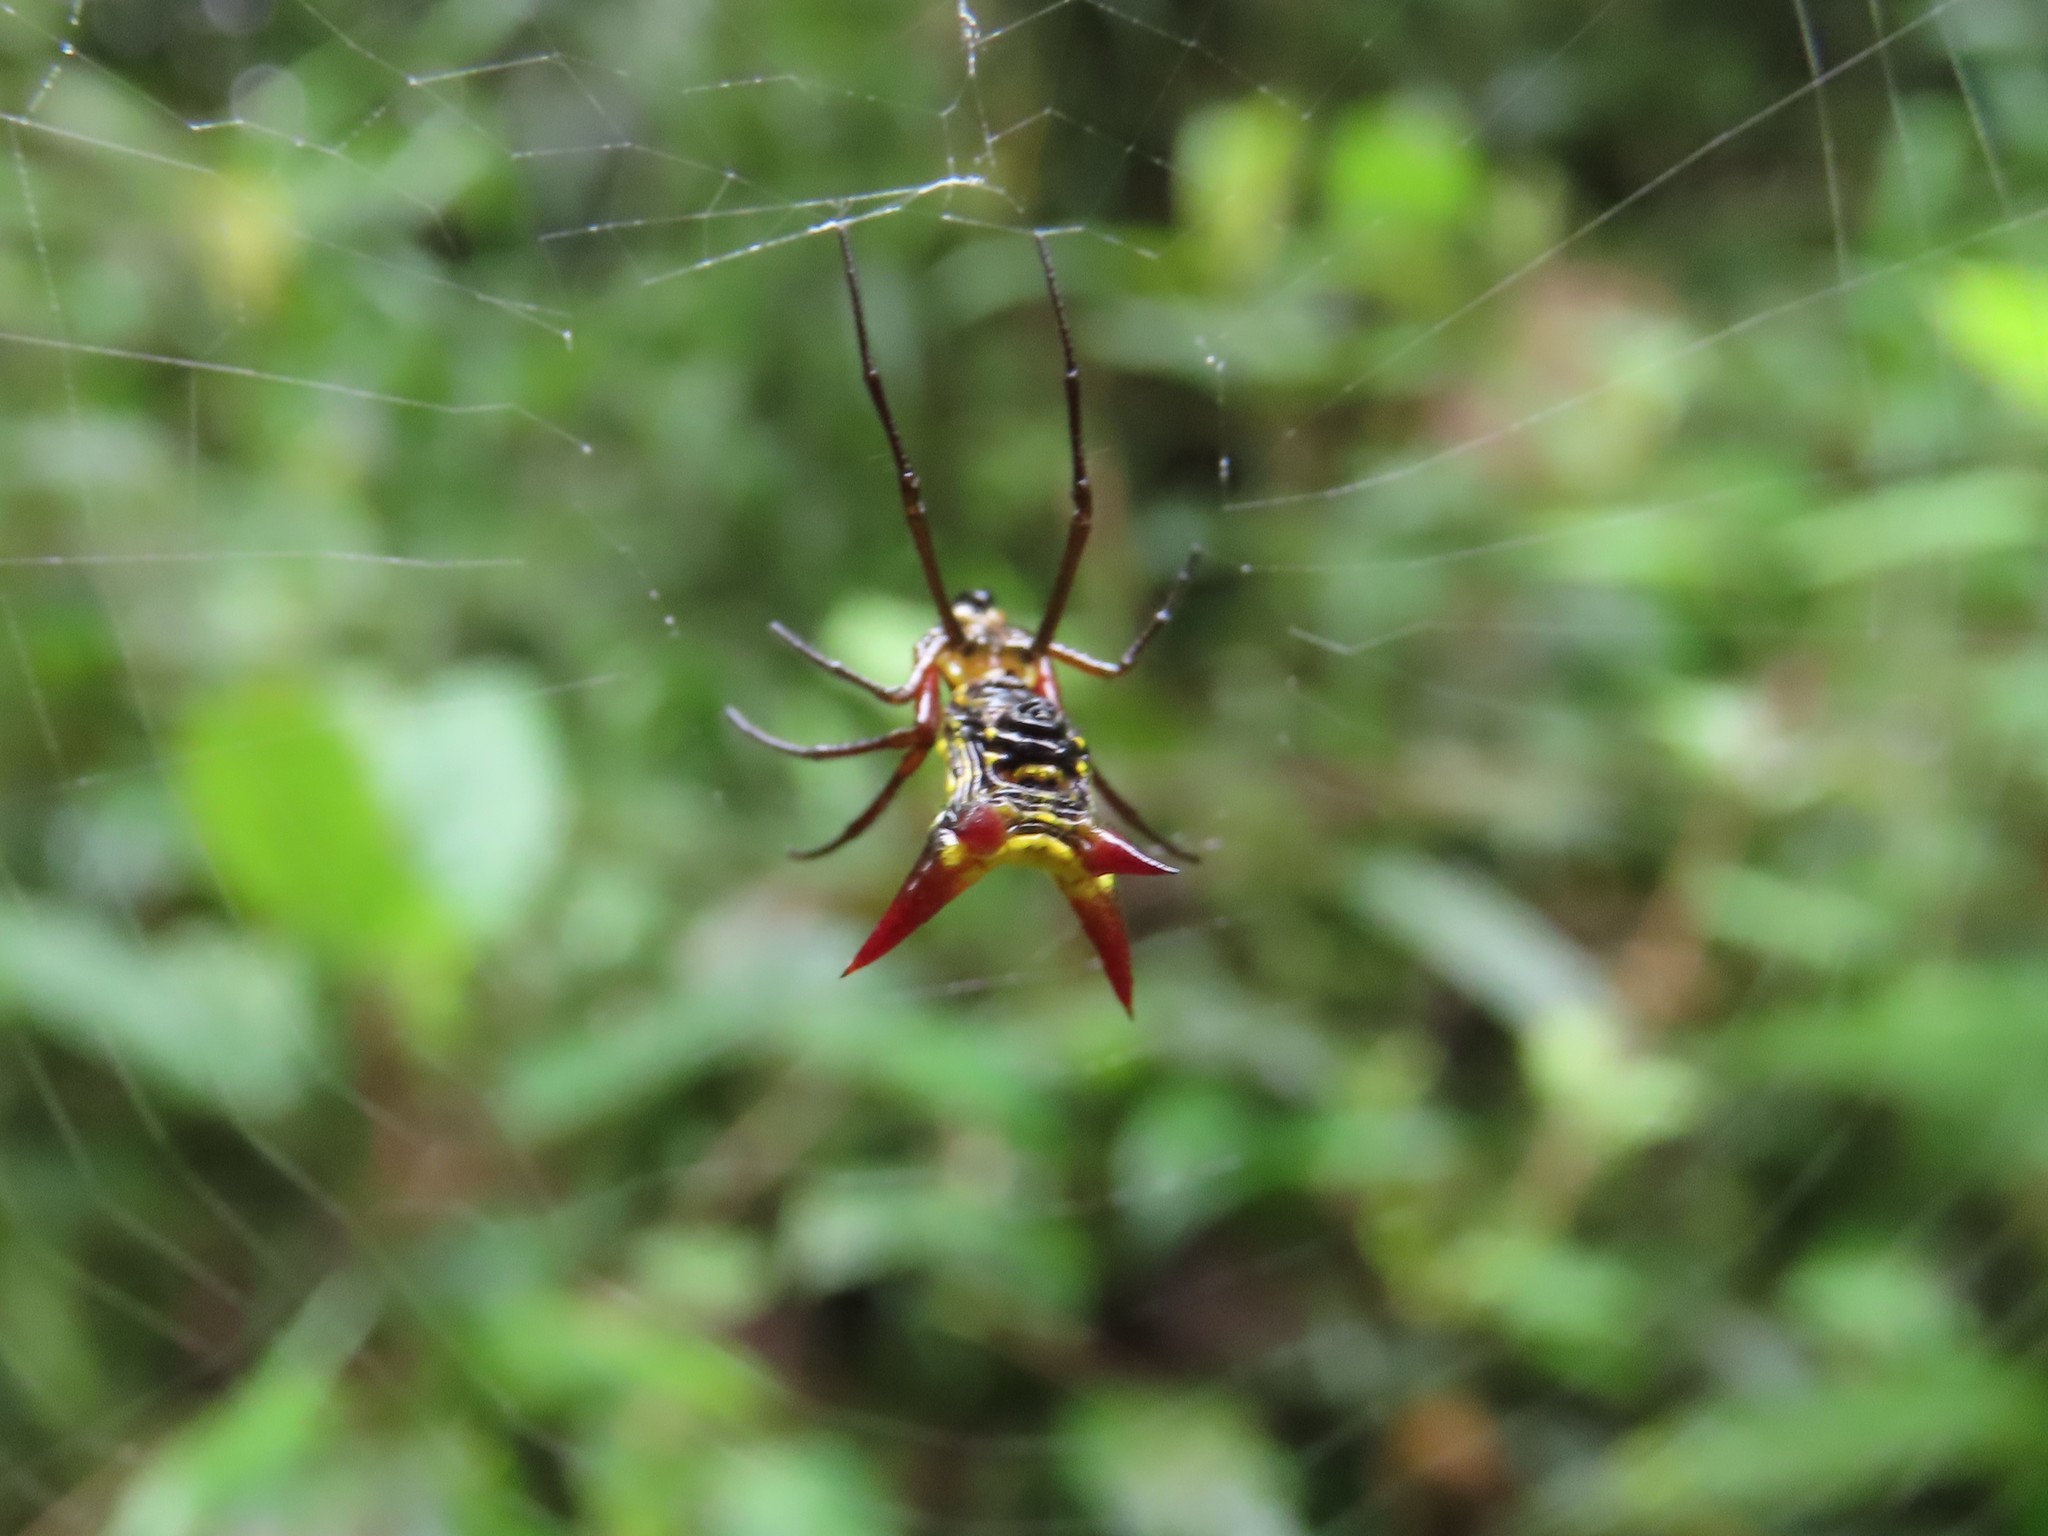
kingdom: Animalia
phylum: Arthropoda
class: Arachnida
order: Araneae
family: Araneidae
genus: Micrathena
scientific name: Micrathena guerini
